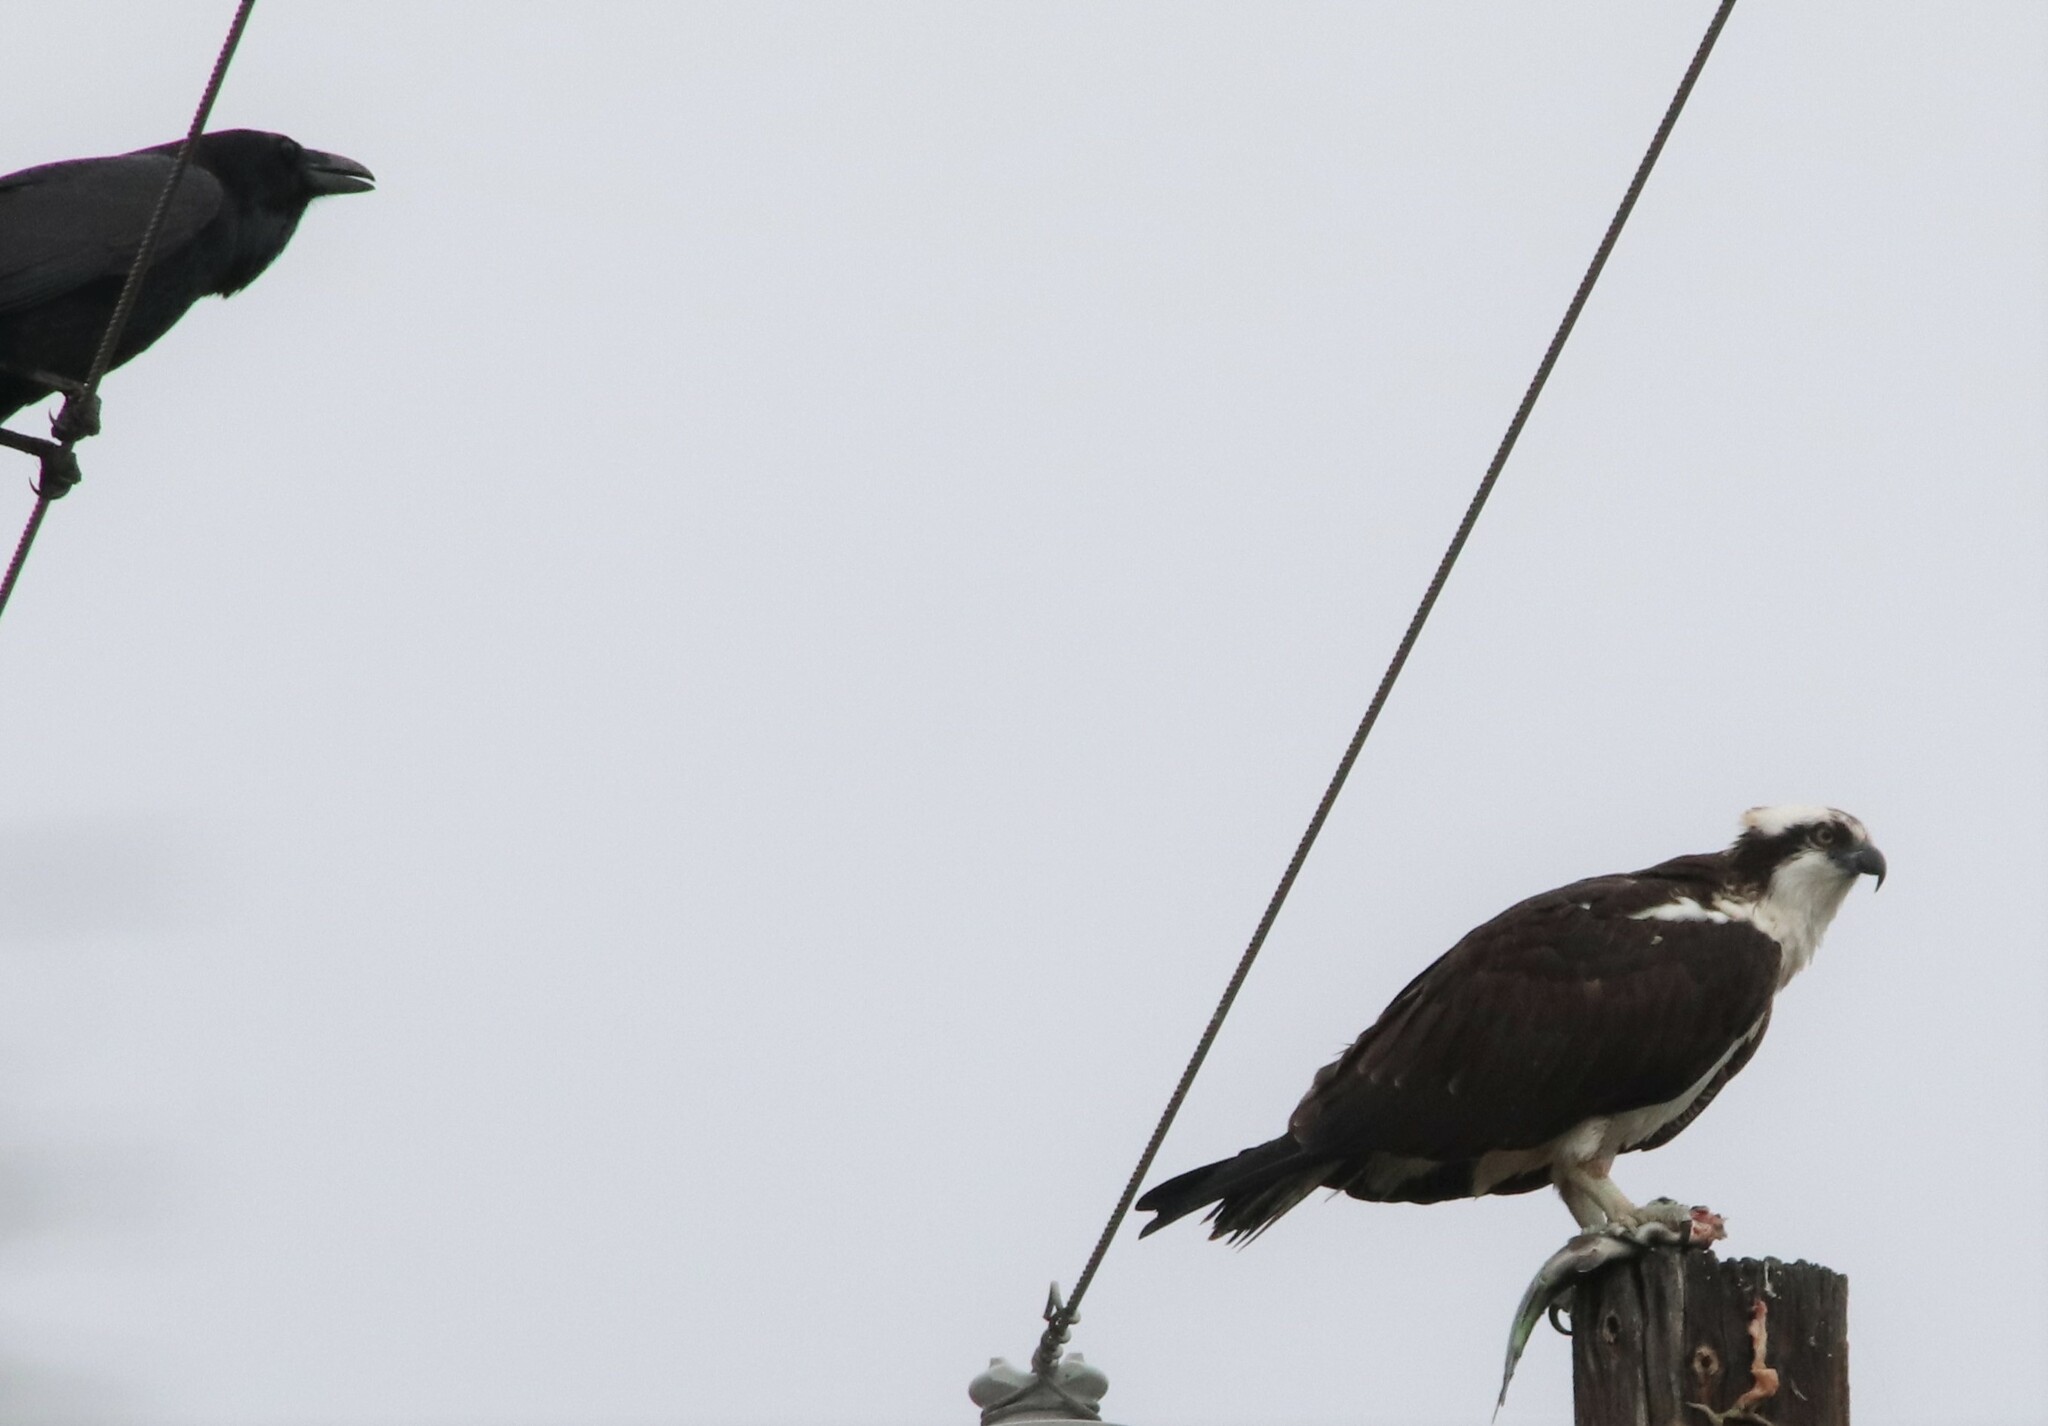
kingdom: Animalia
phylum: Chordata
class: Aves
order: Passeriformes
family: Corvidae
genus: Corvus
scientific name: Corvus corax
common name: Common raven
